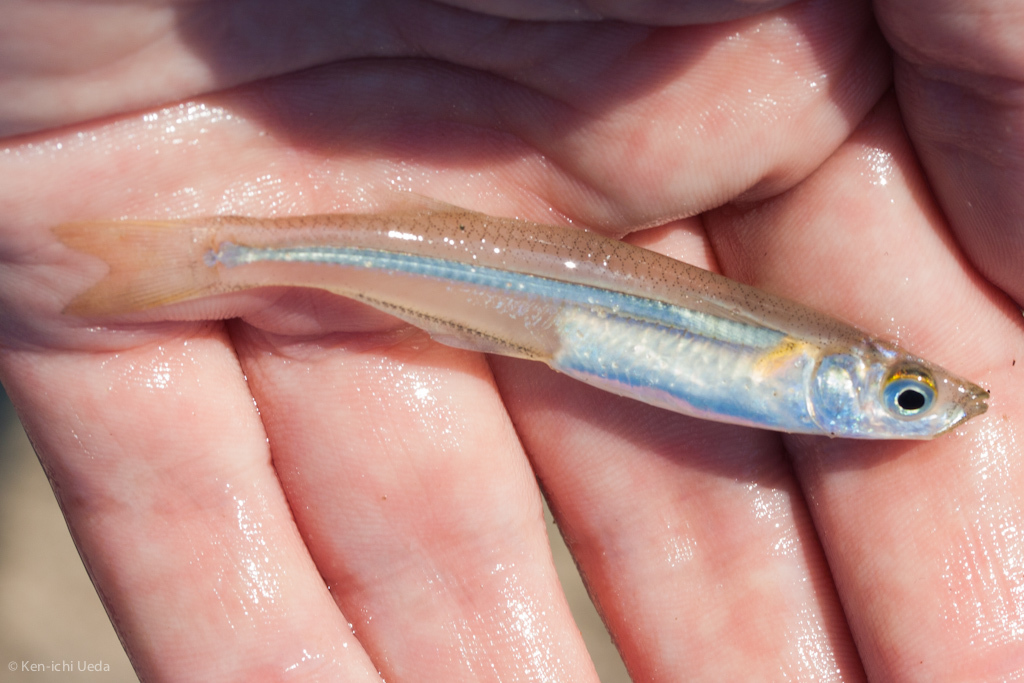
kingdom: Animalia
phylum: Chordata
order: Atheriniformes
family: Atherinopsidae
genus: Menidia
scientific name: Menidia menidia
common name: Atlantic silverside
